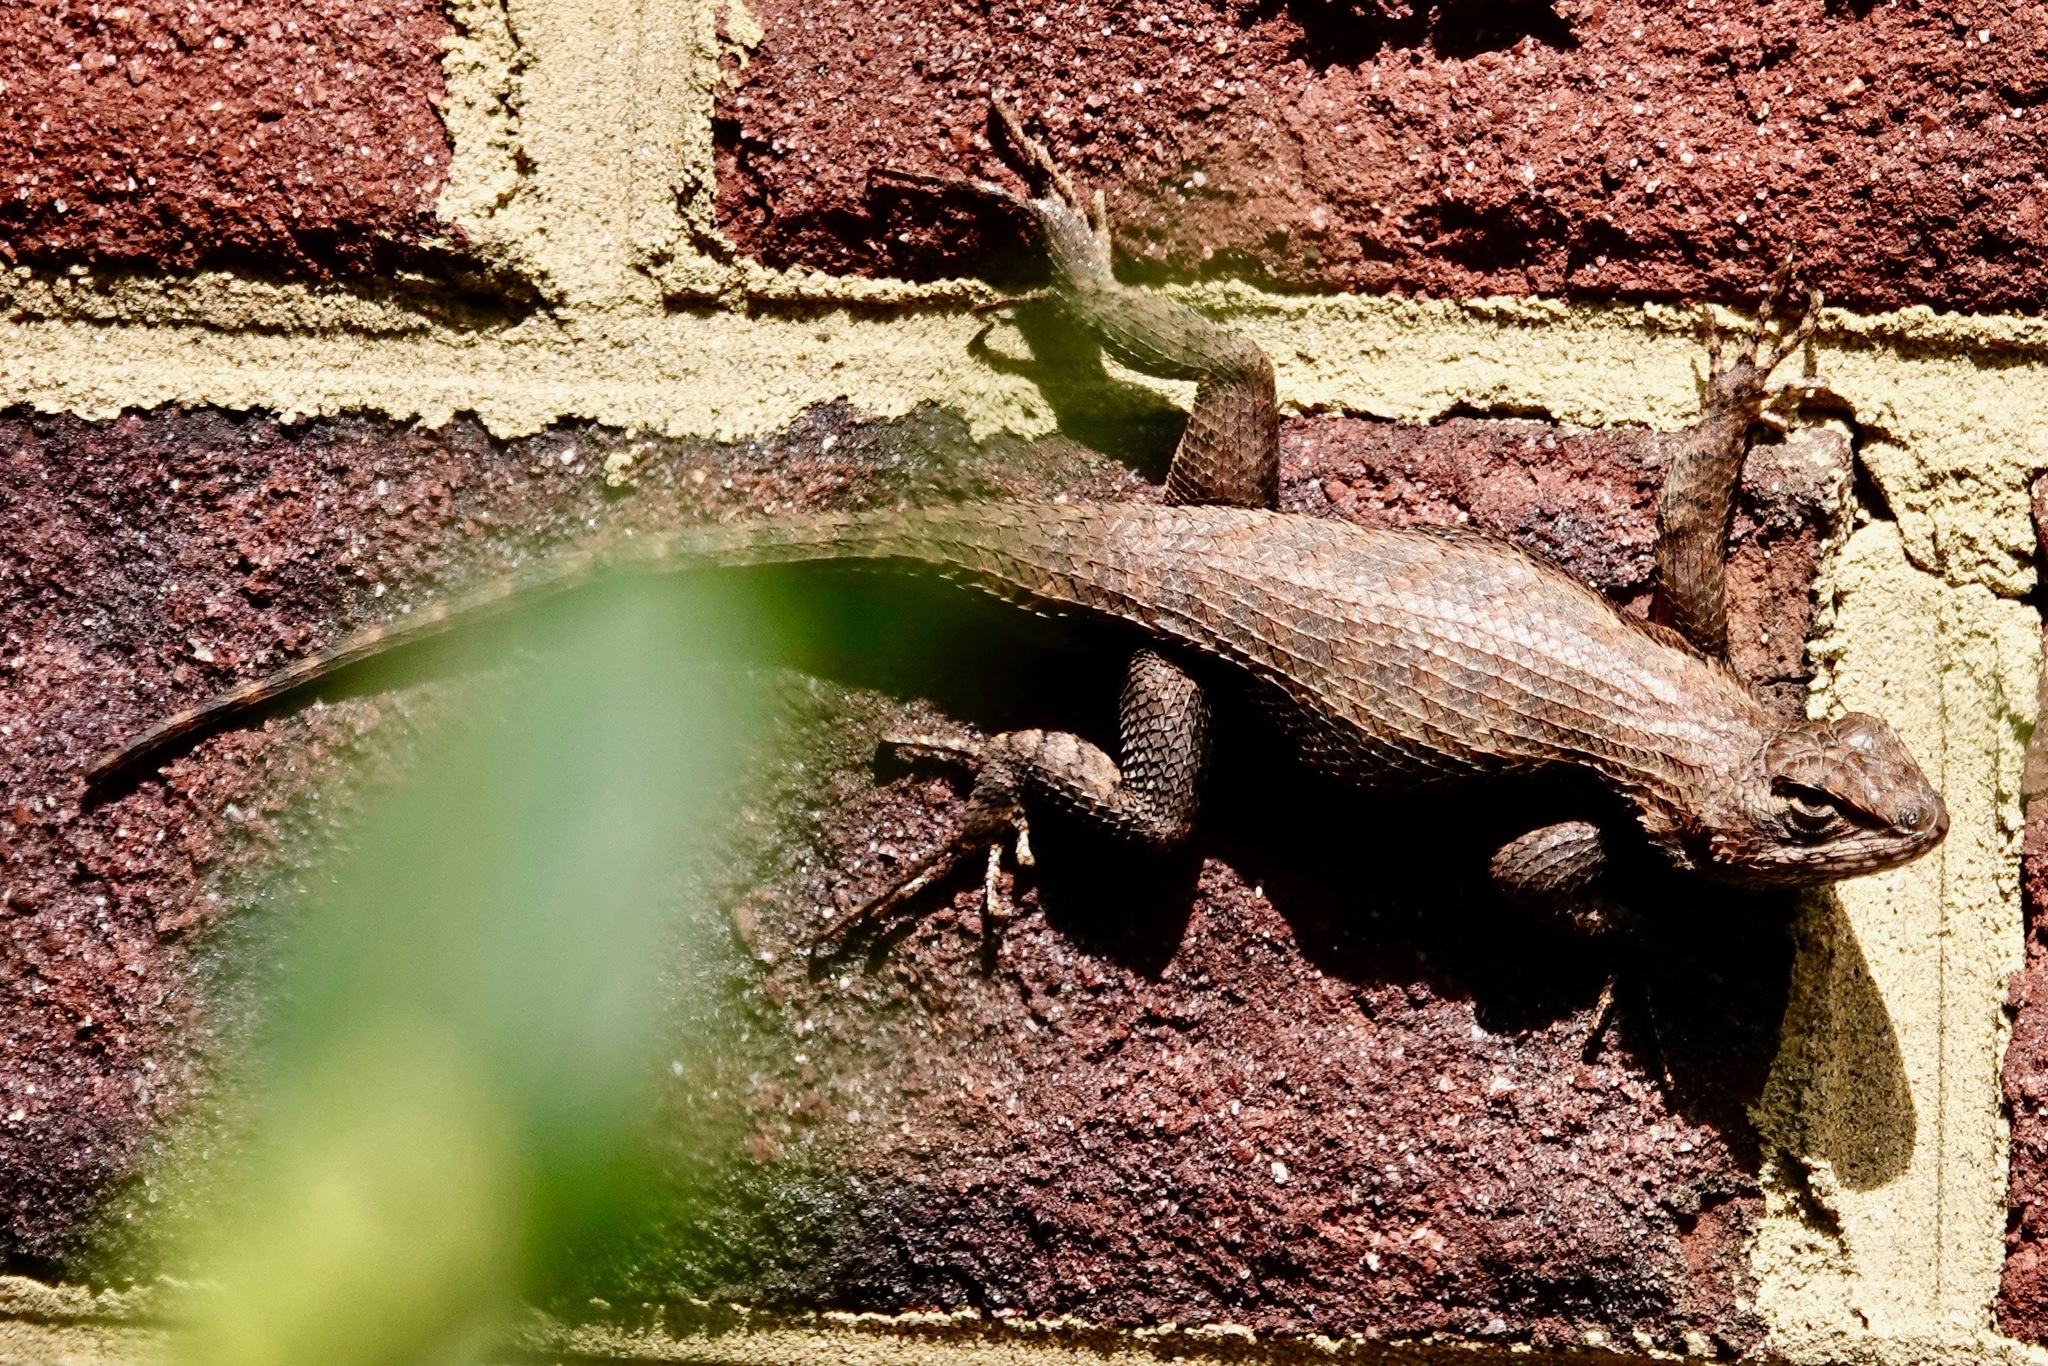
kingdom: Animalia
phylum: Chordata
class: Squamata
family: Phrynosomatidae
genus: Sceloporus
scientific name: Sceloporus undulatus
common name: Eastern fence lizard
